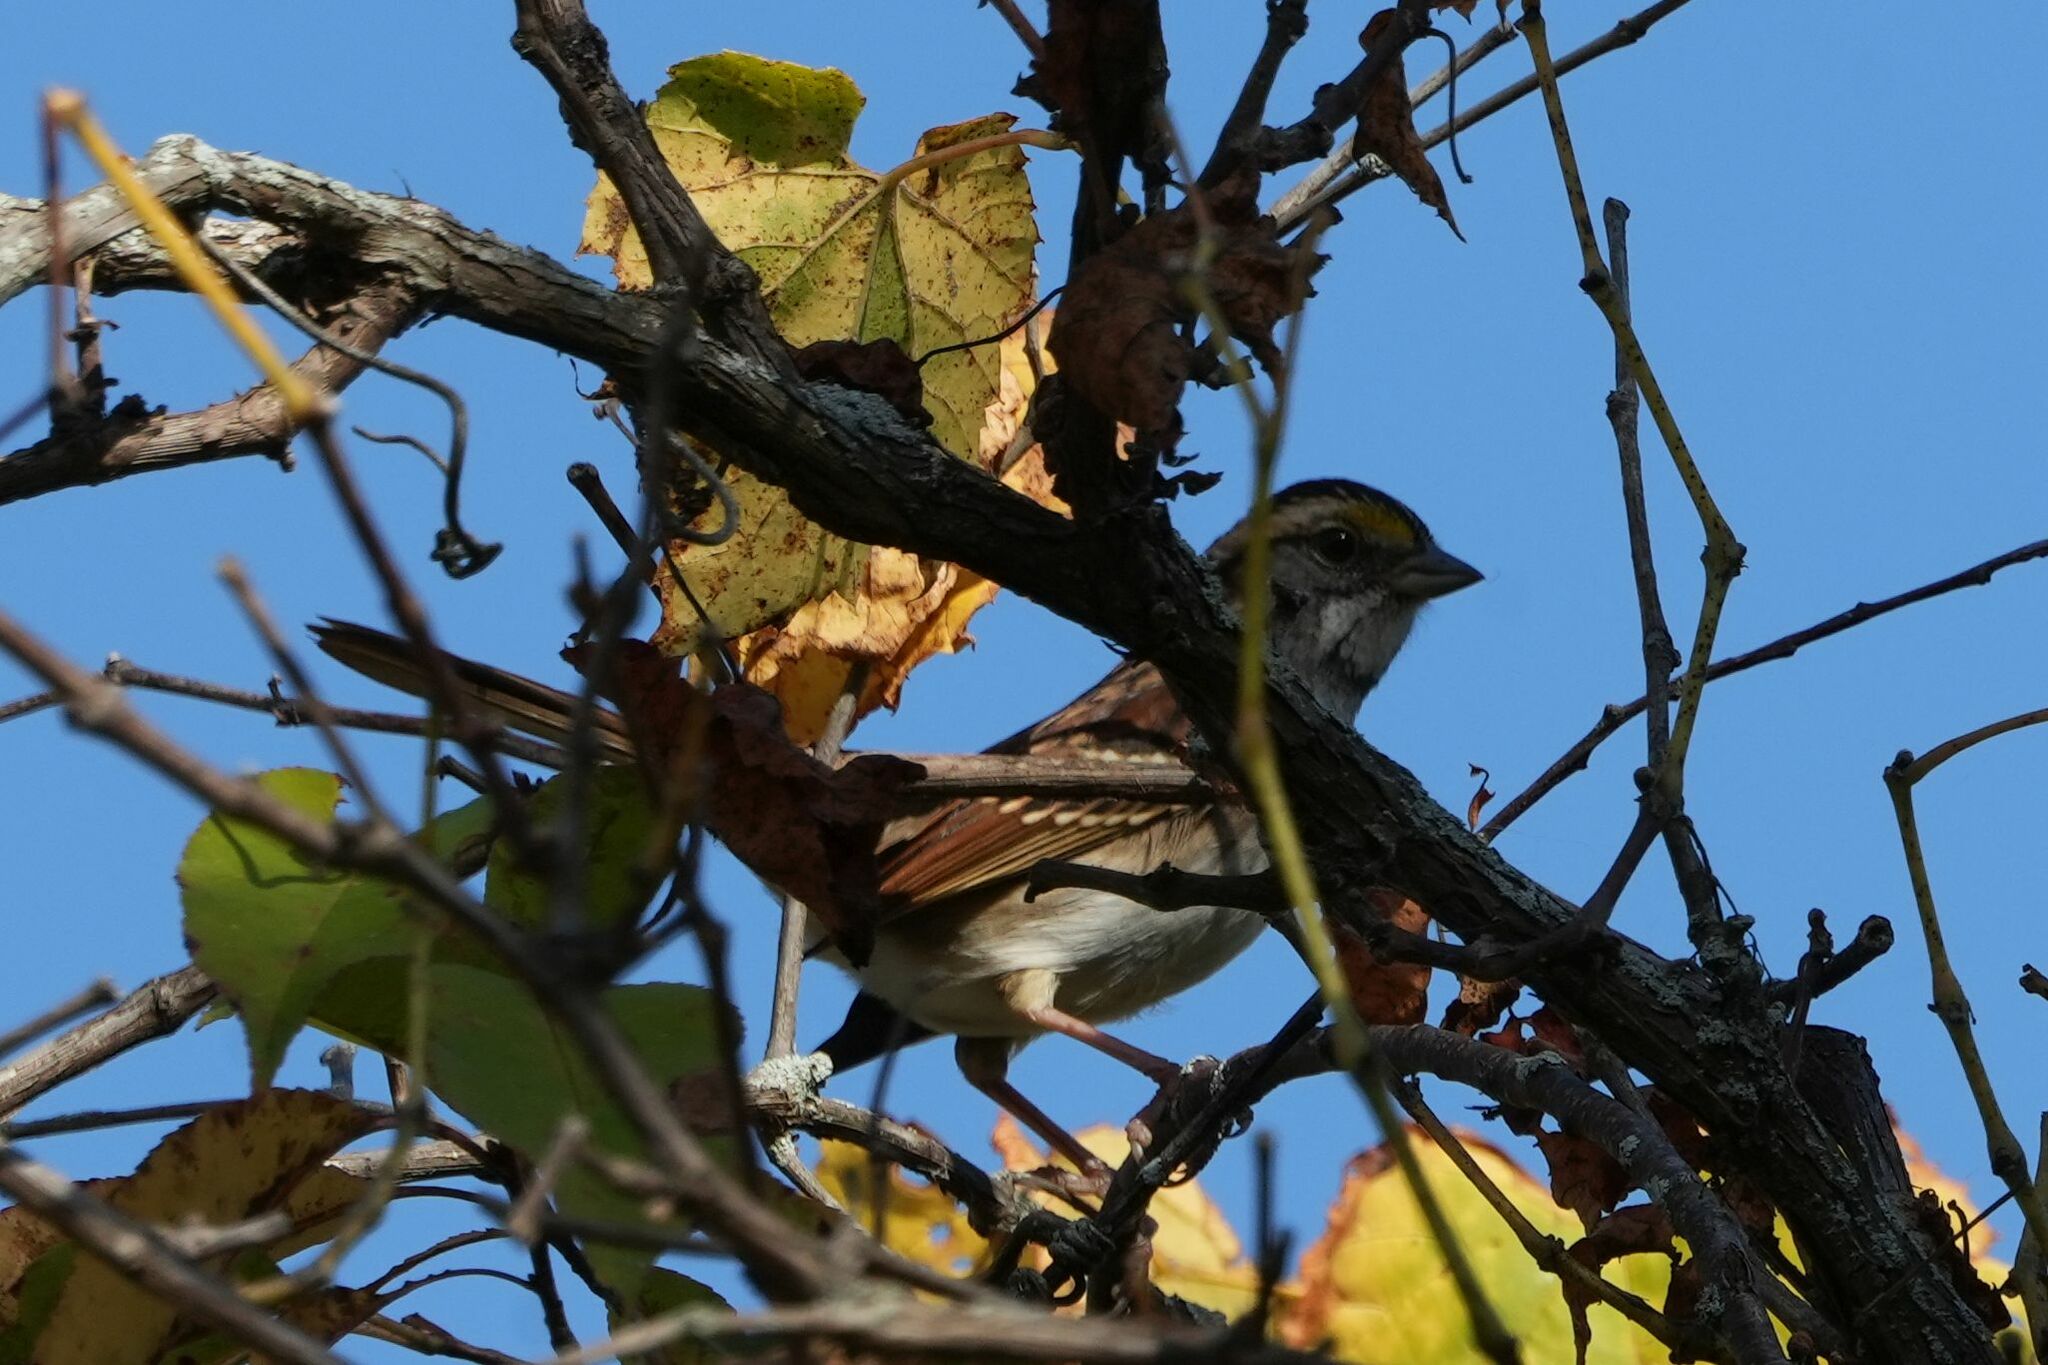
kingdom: Animalia
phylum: Chordata
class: Aves
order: Passeriformes
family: Passerellidae
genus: Zonotrichia
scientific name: Zonotrichia albicollis
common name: White-throated sparrow
